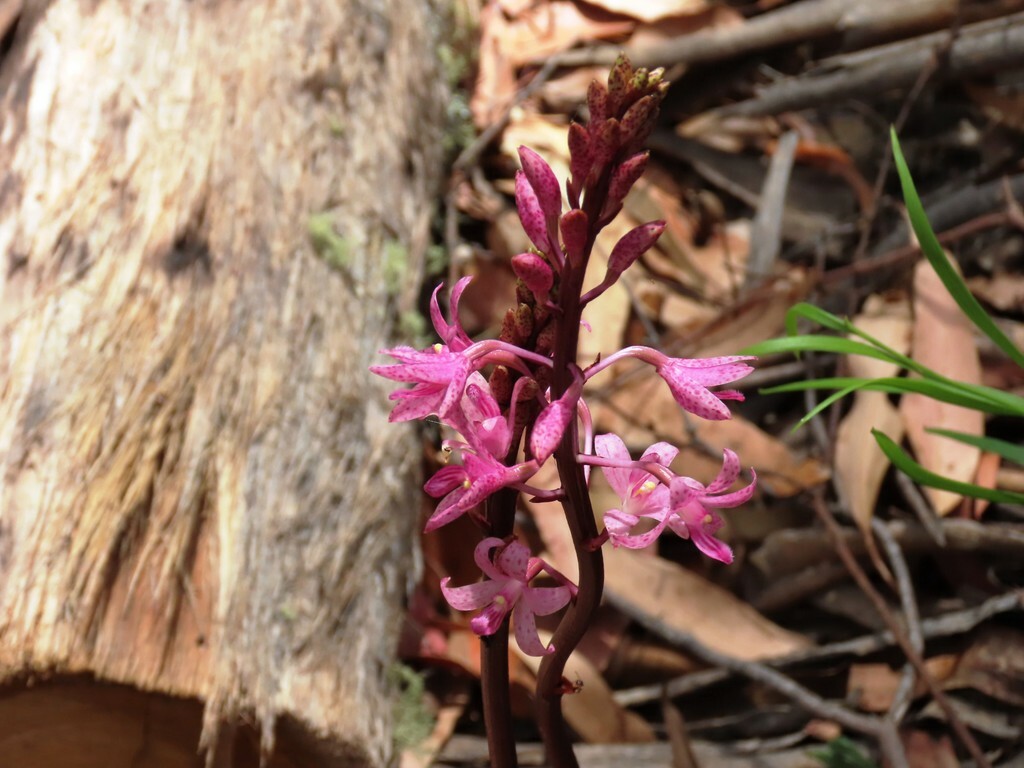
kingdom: Plantae
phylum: Tracheophyta
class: Liliopsida
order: Asparagales
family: Orchidaceae
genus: Dipodium
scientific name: Dipodium roseum
